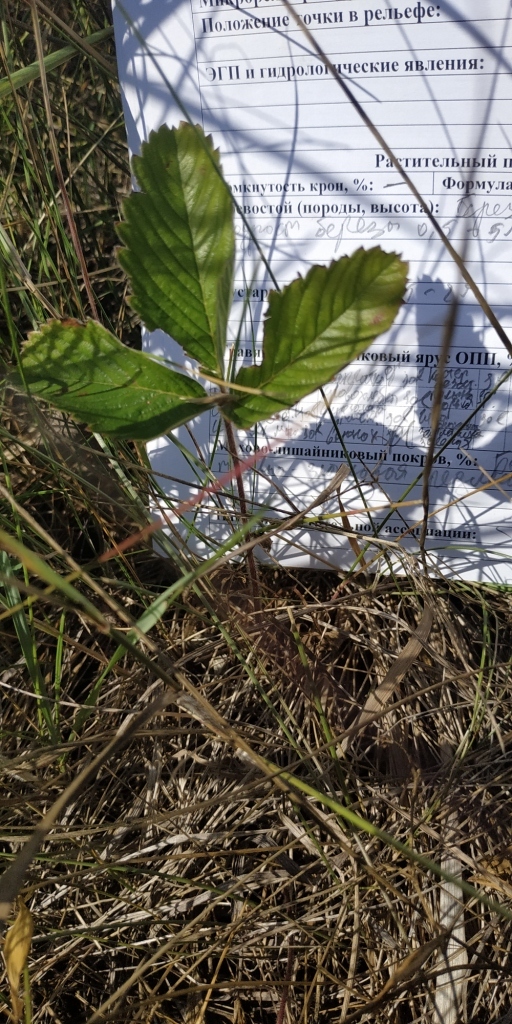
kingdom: Plantae
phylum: Tracheophyta
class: Magnoliopsida
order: Rosales
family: Rosaceae
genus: Fragaria
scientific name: Fragaria viridis
